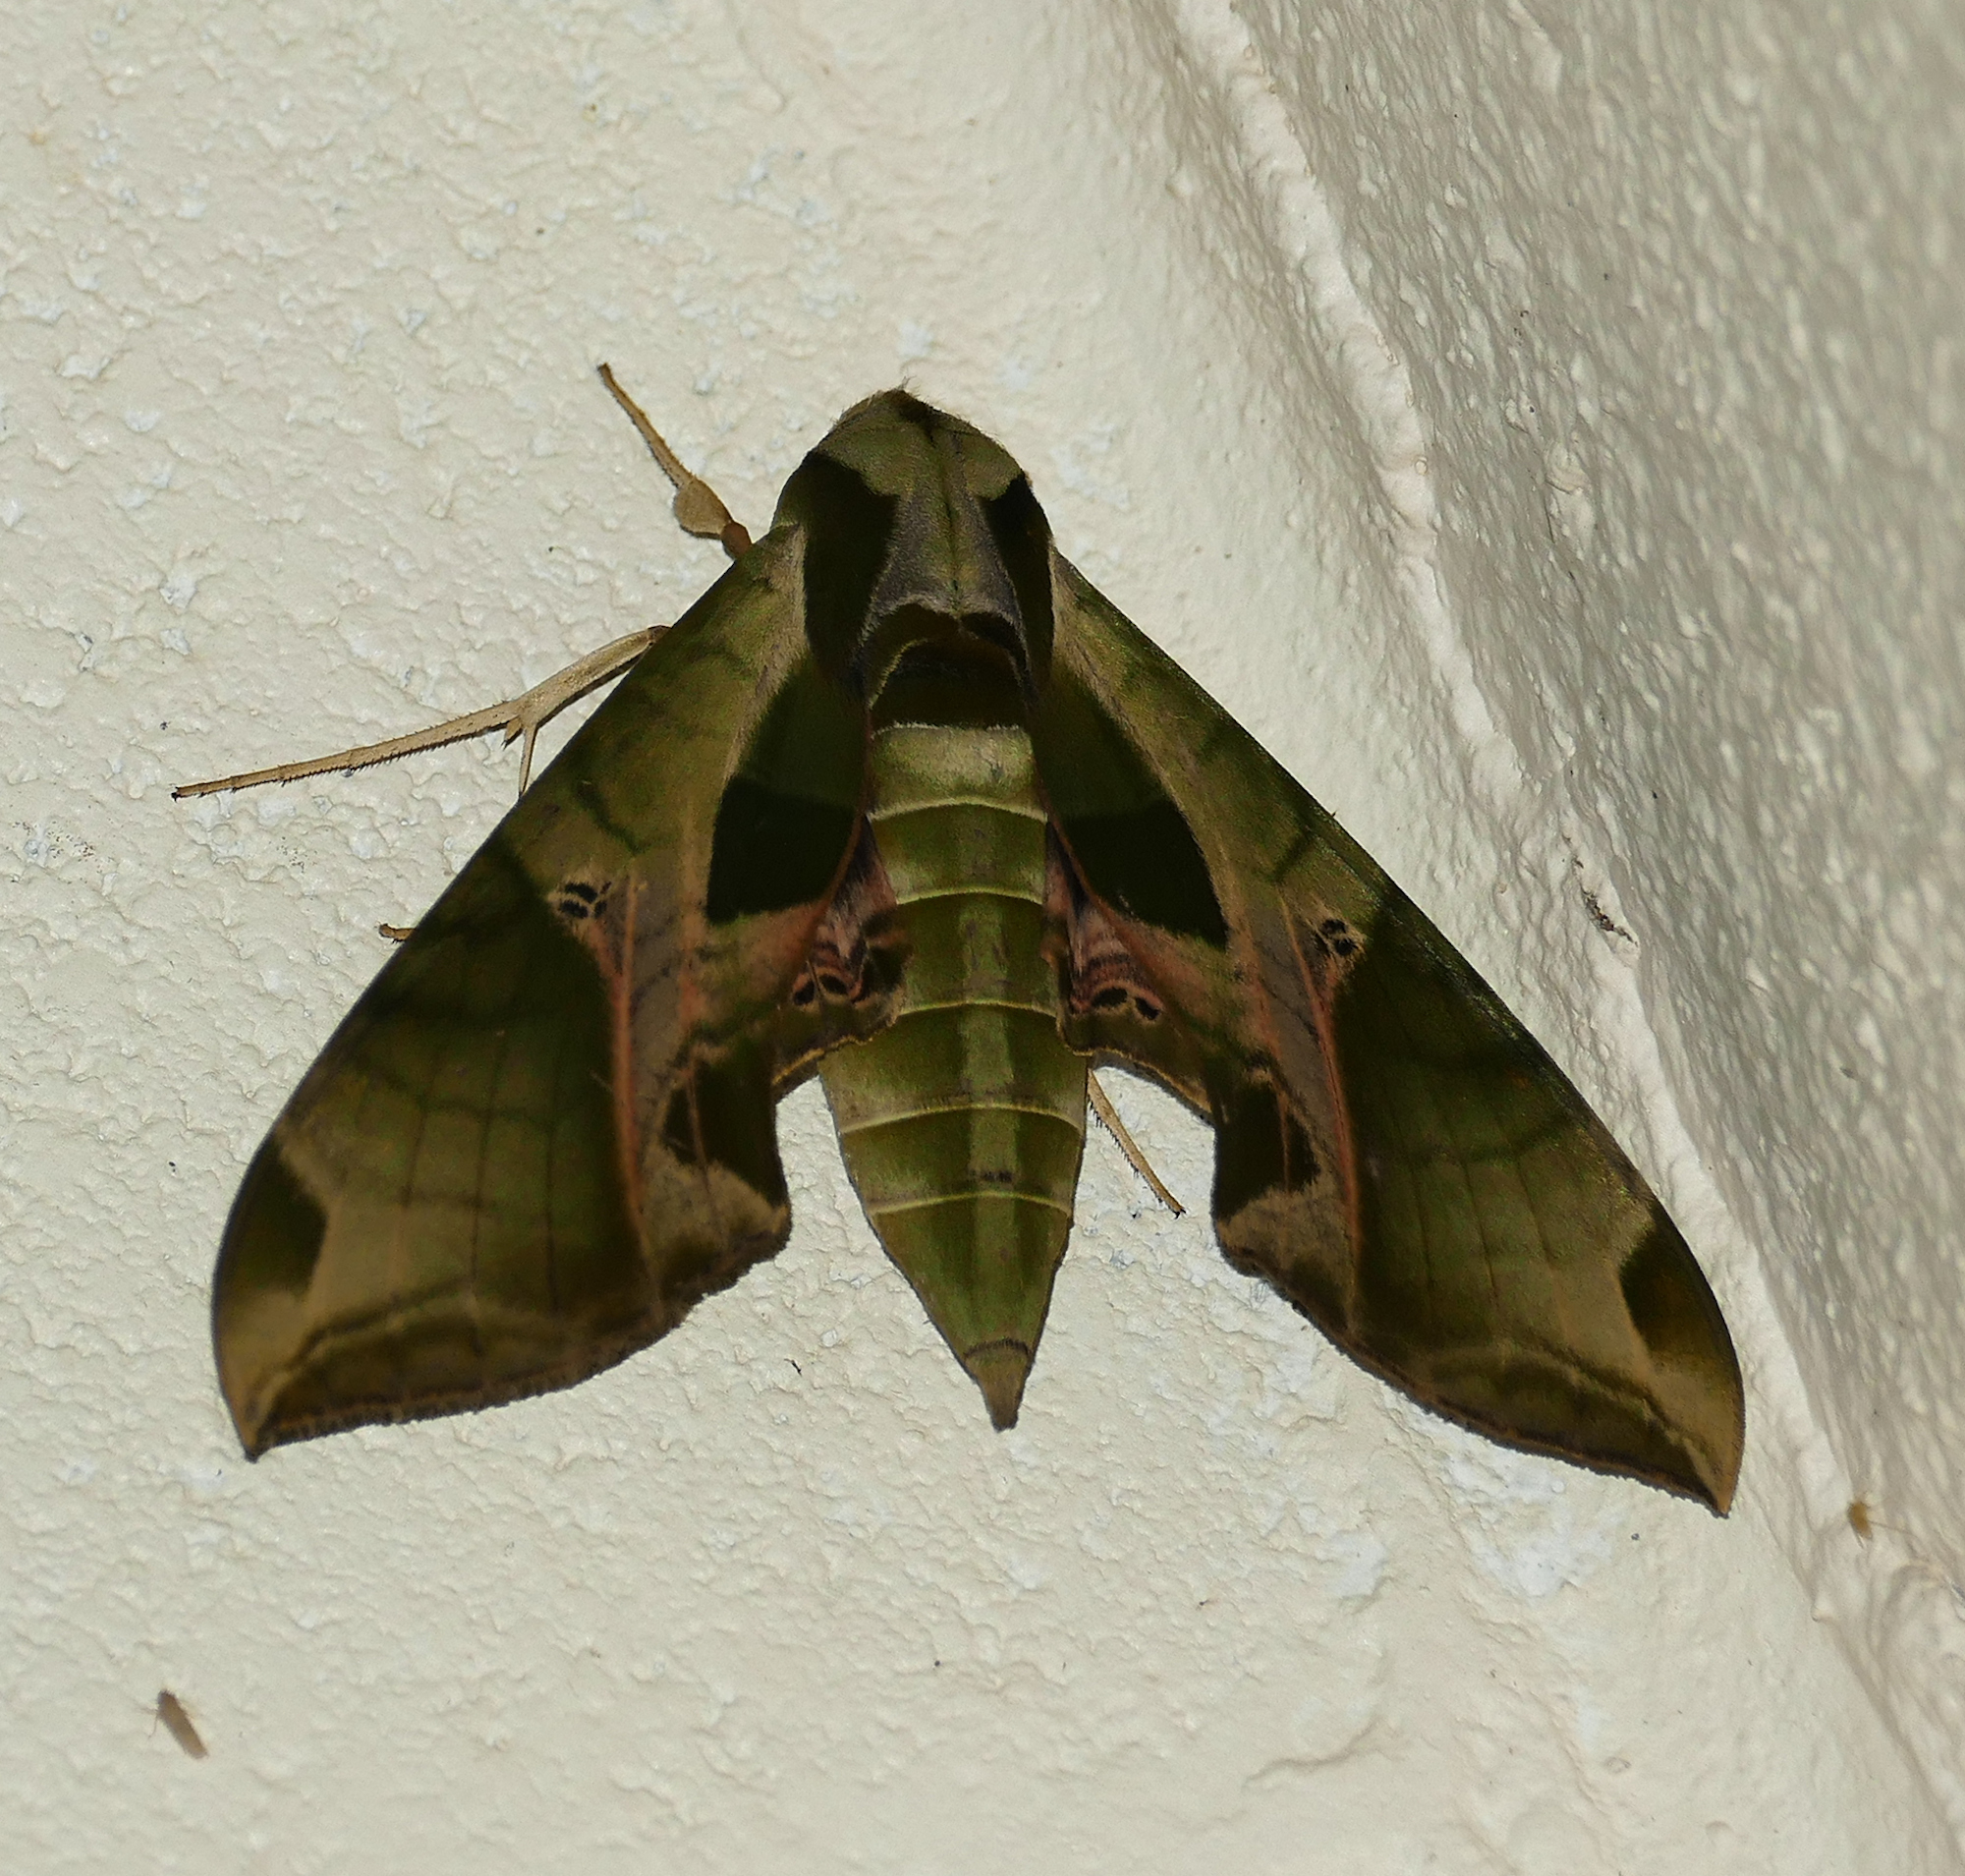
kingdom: Animalia
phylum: Arthropoda
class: Insecta
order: Lepidoptera
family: Sphingidae
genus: Eumorpha
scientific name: Eumorpha pandorus
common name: Pandora sphinx
